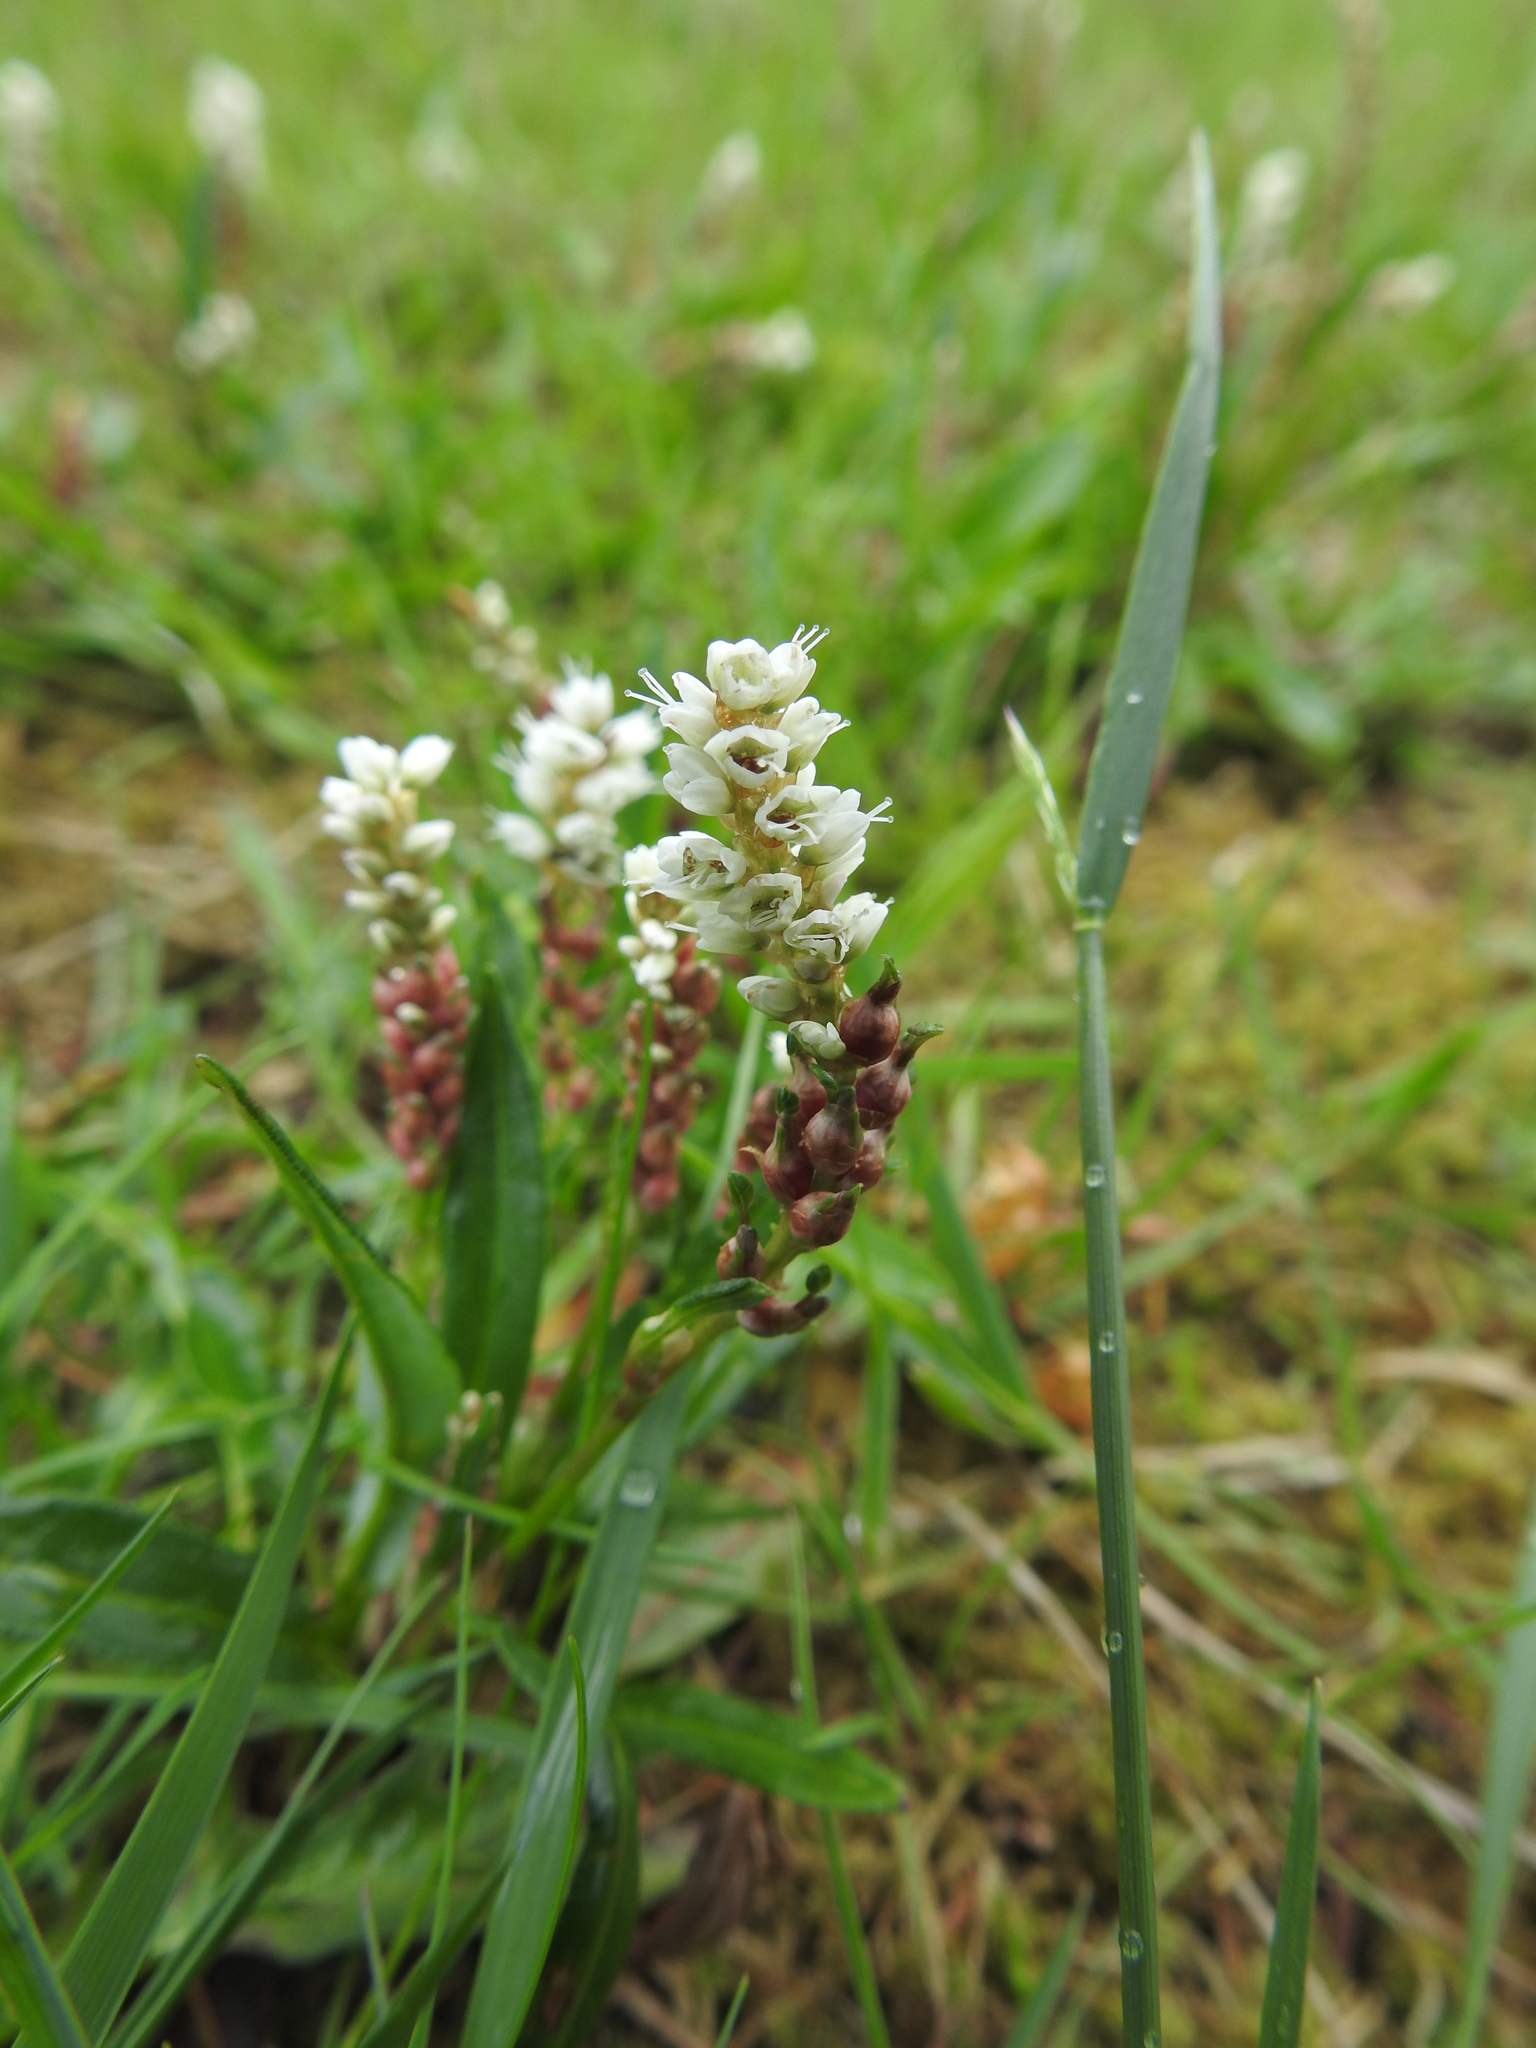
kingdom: Plantae
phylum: Tracheophyta
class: Magnoliopsida
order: Caryophyllales
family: Polygonaceae
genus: Bistorta
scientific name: Bistorta vivipara
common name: Alpine bistort
